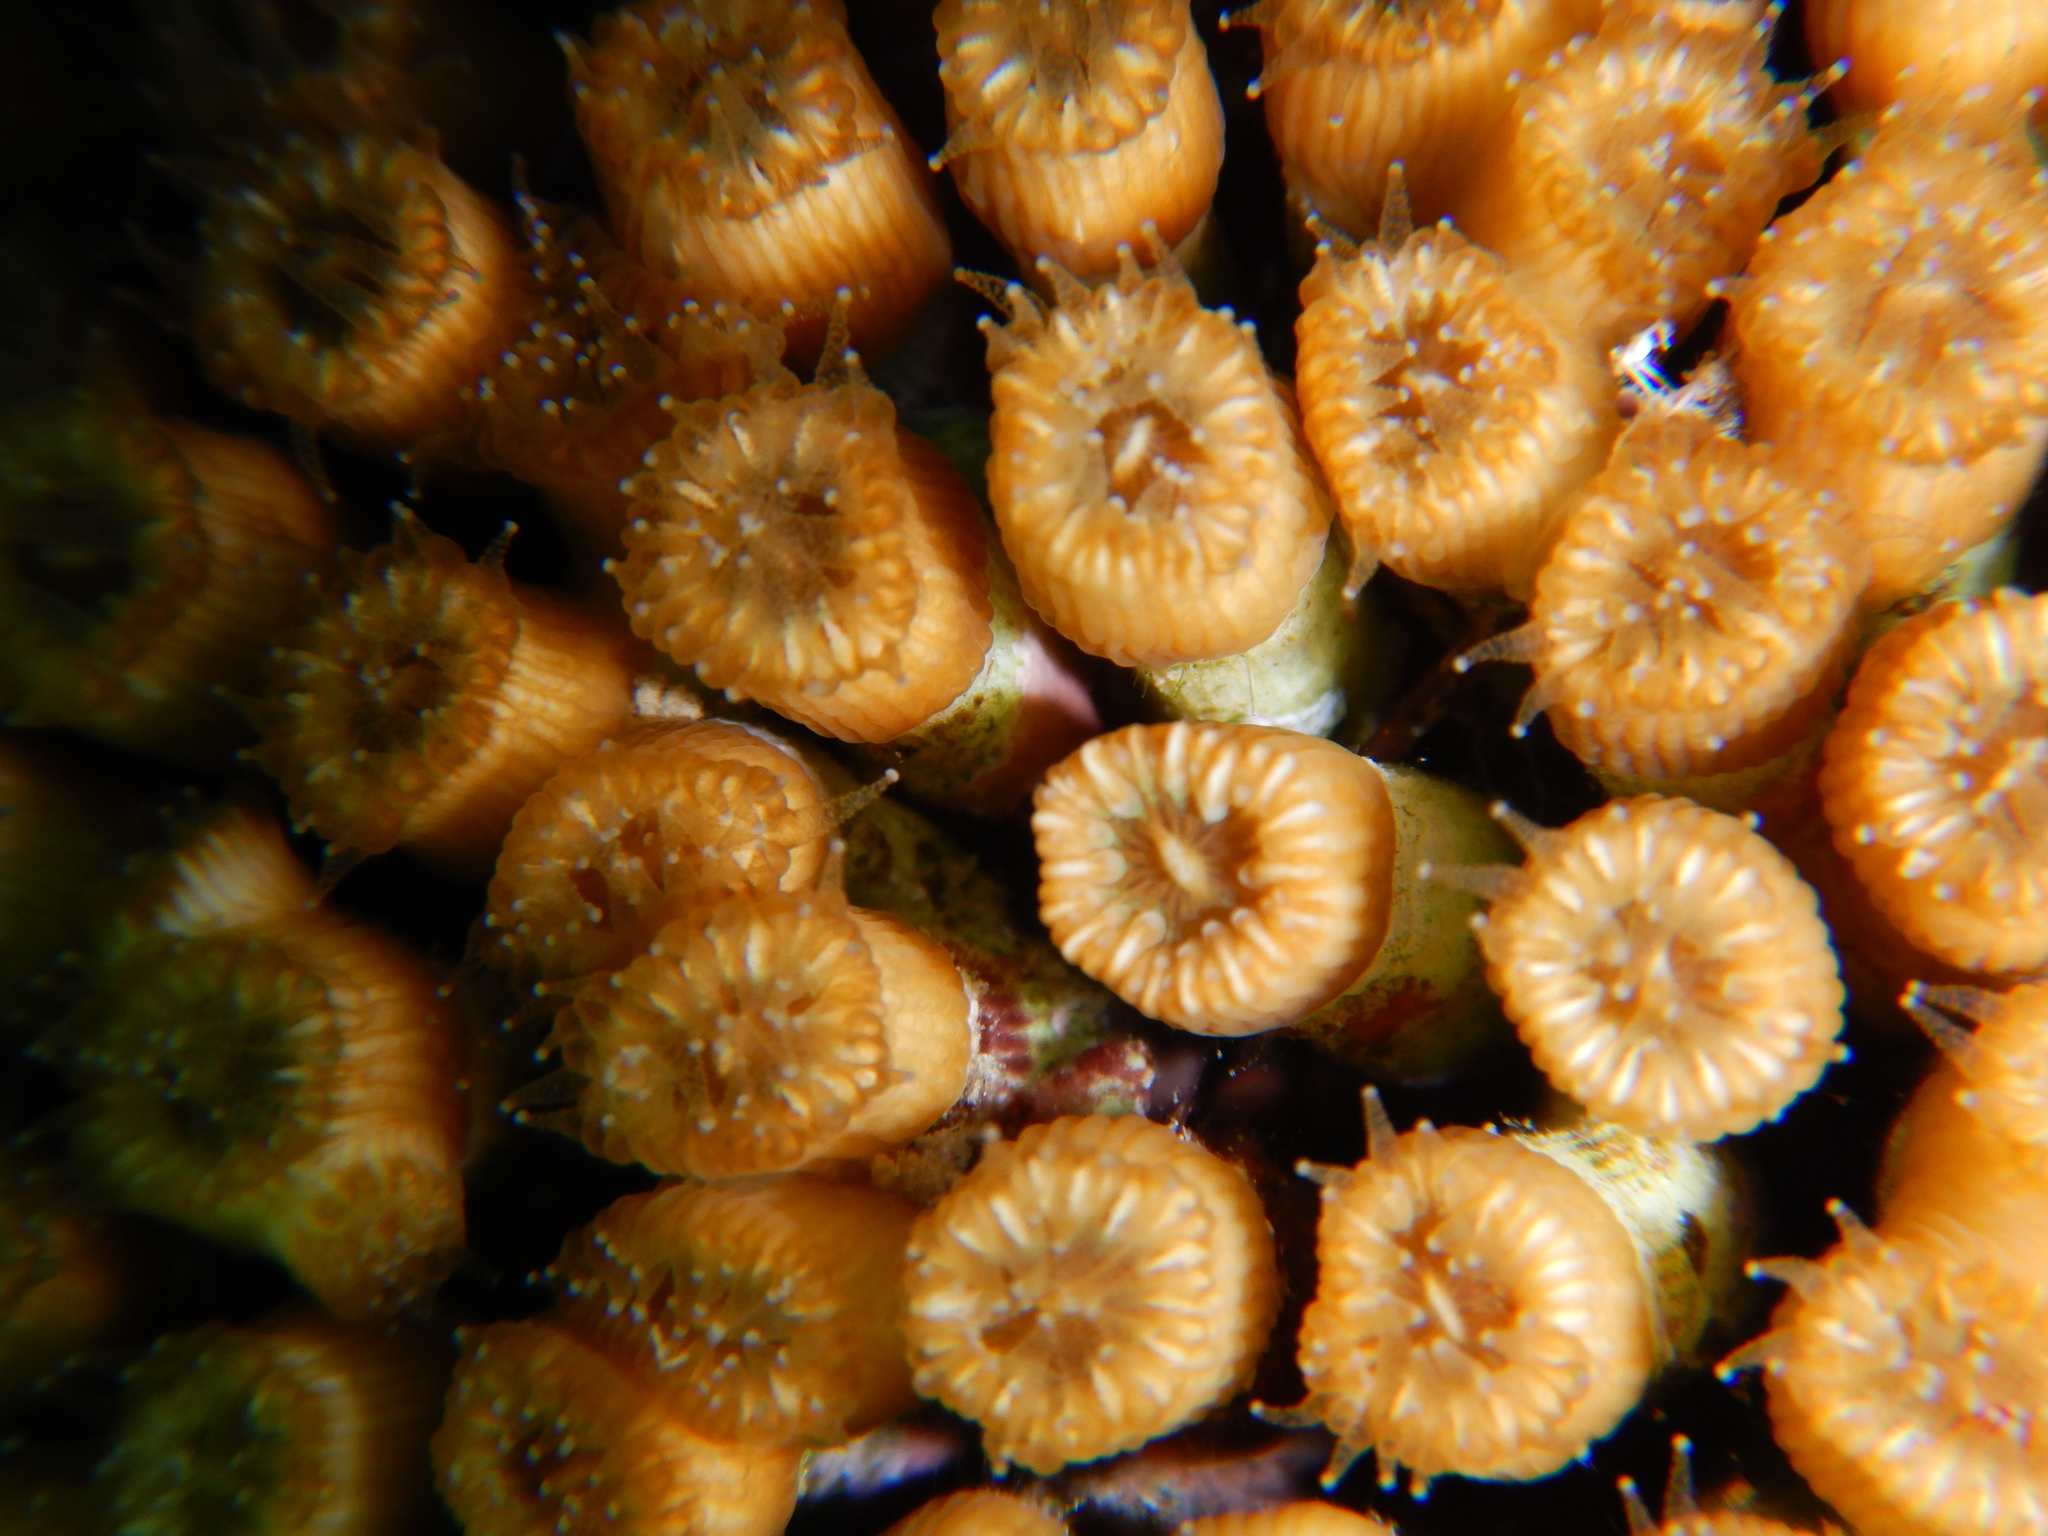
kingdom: Animalia
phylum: Cnidaria
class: Anthozoa
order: Scleractinia
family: Cladocoridae
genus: Cladocora
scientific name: Cladocora caespitosa
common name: Cladocora
